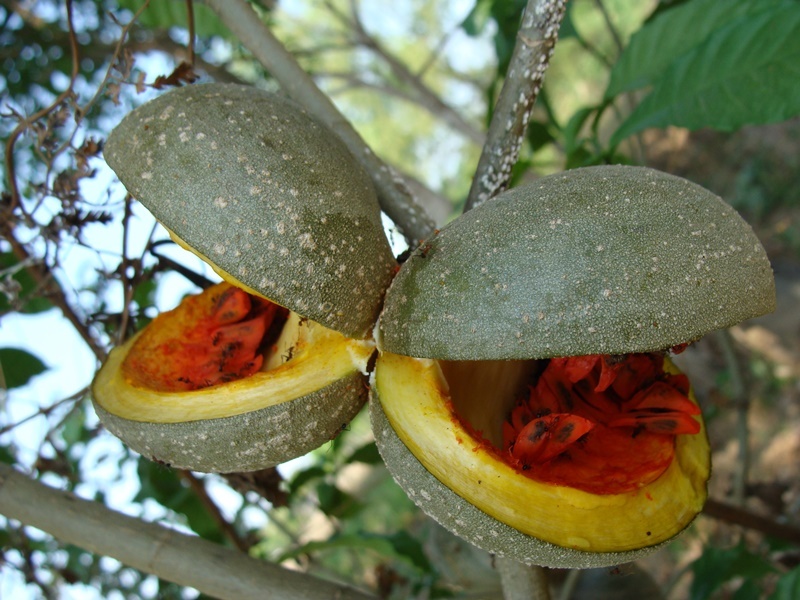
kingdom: Plantae
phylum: Tracheophyta
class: Magnoliopsida
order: Gentianales
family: Apocynaceae
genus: Tabernaemontana
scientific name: Tabernaemontana donnell-smithii
